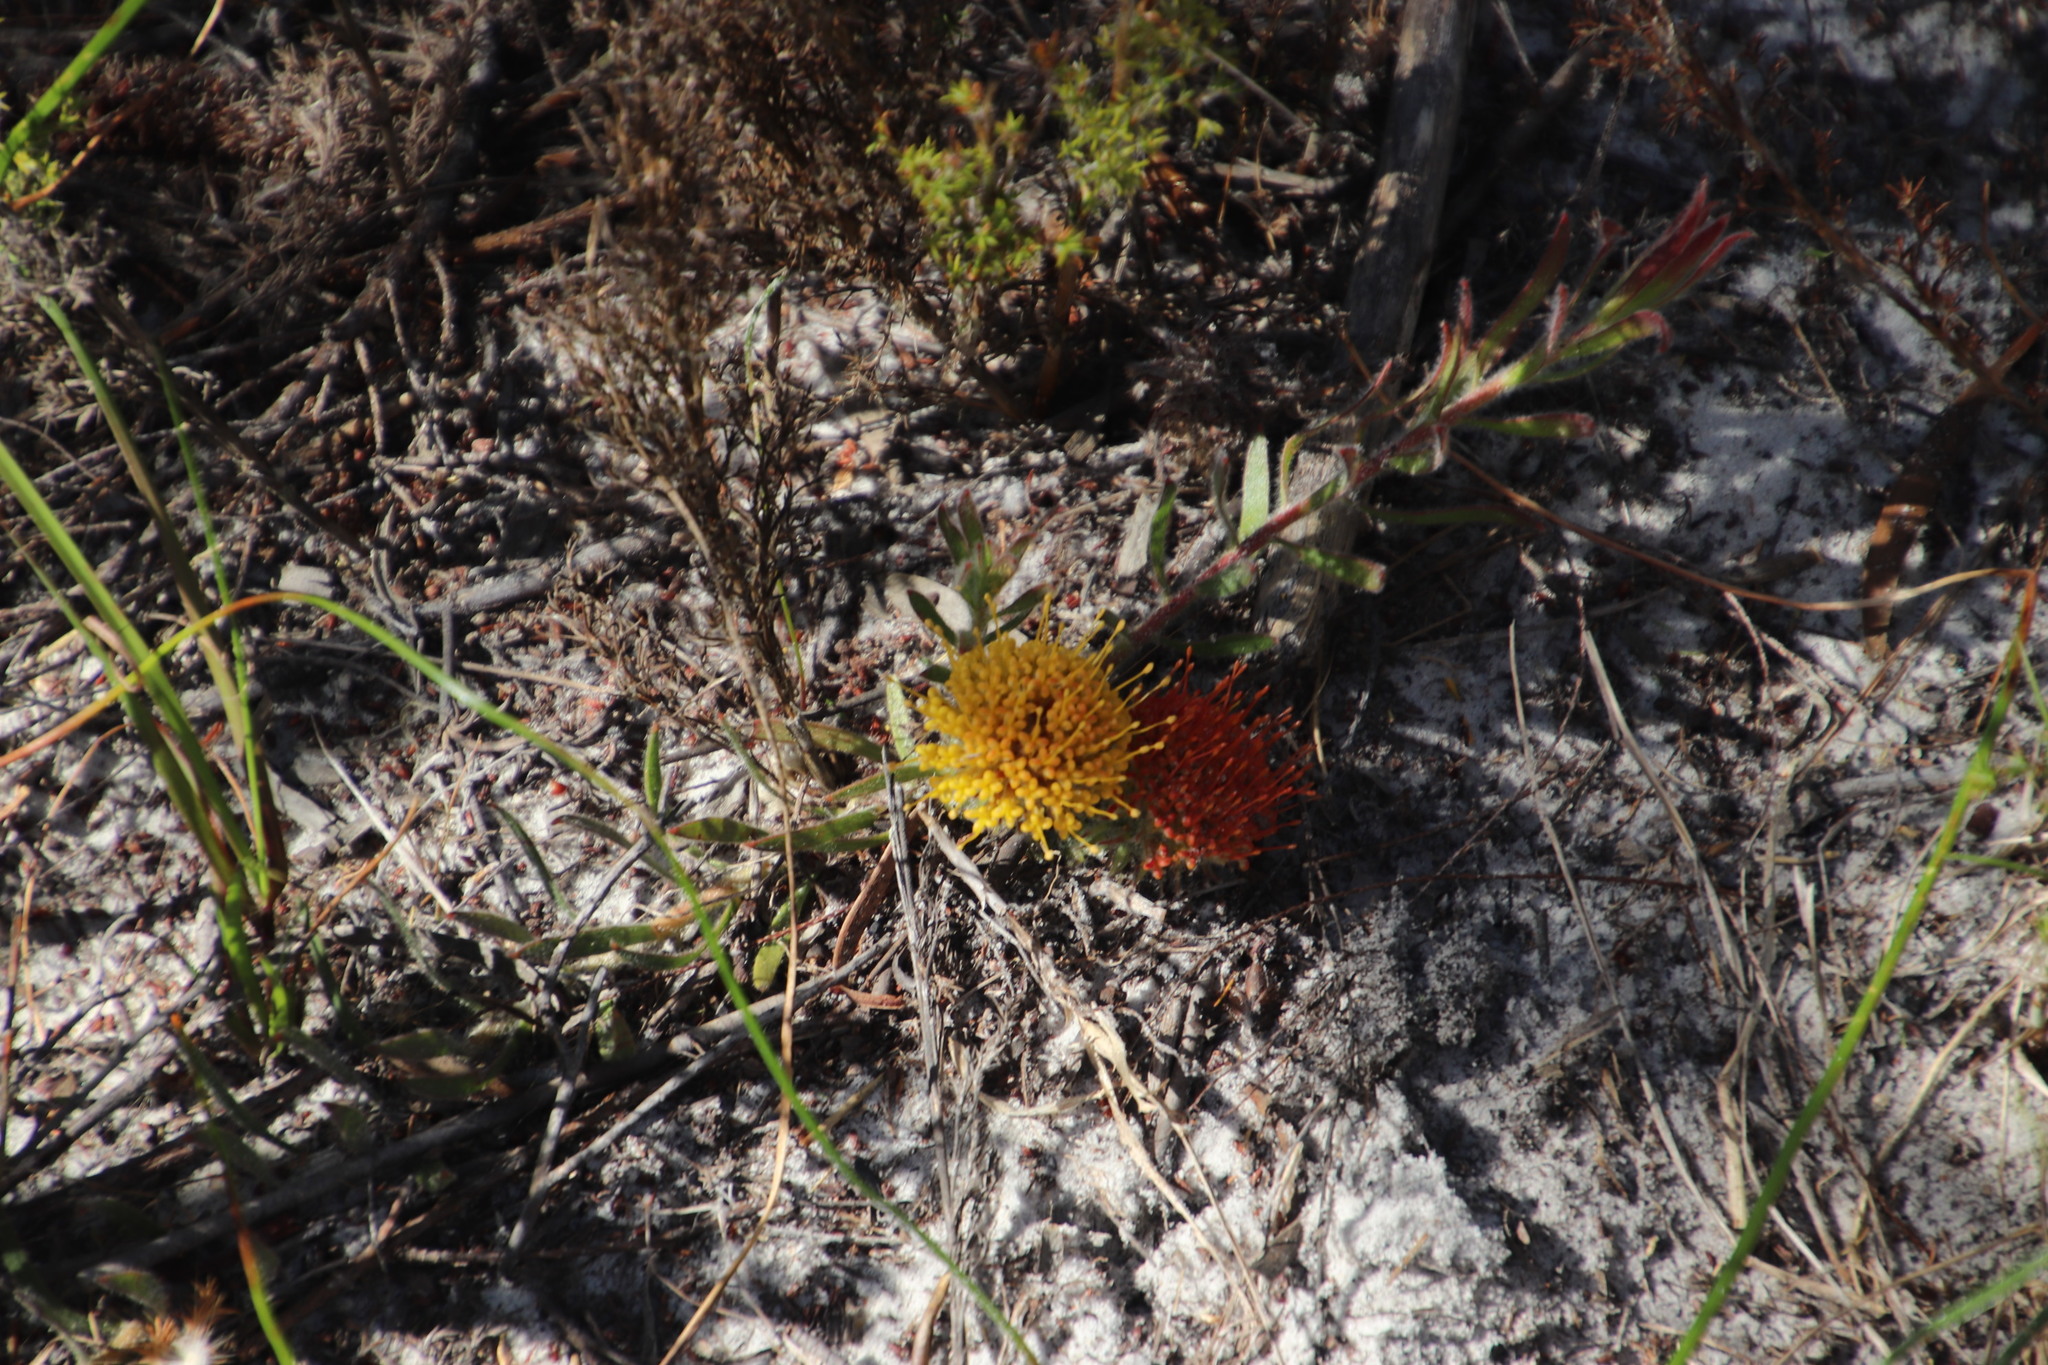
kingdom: Plantae
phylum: Tracheophyta
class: Magnoliopsida
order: Proteales
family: Proteaceae
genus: Leucospermum
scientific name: Leucospermum prostratum
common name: Yellow-trailing pincushion
